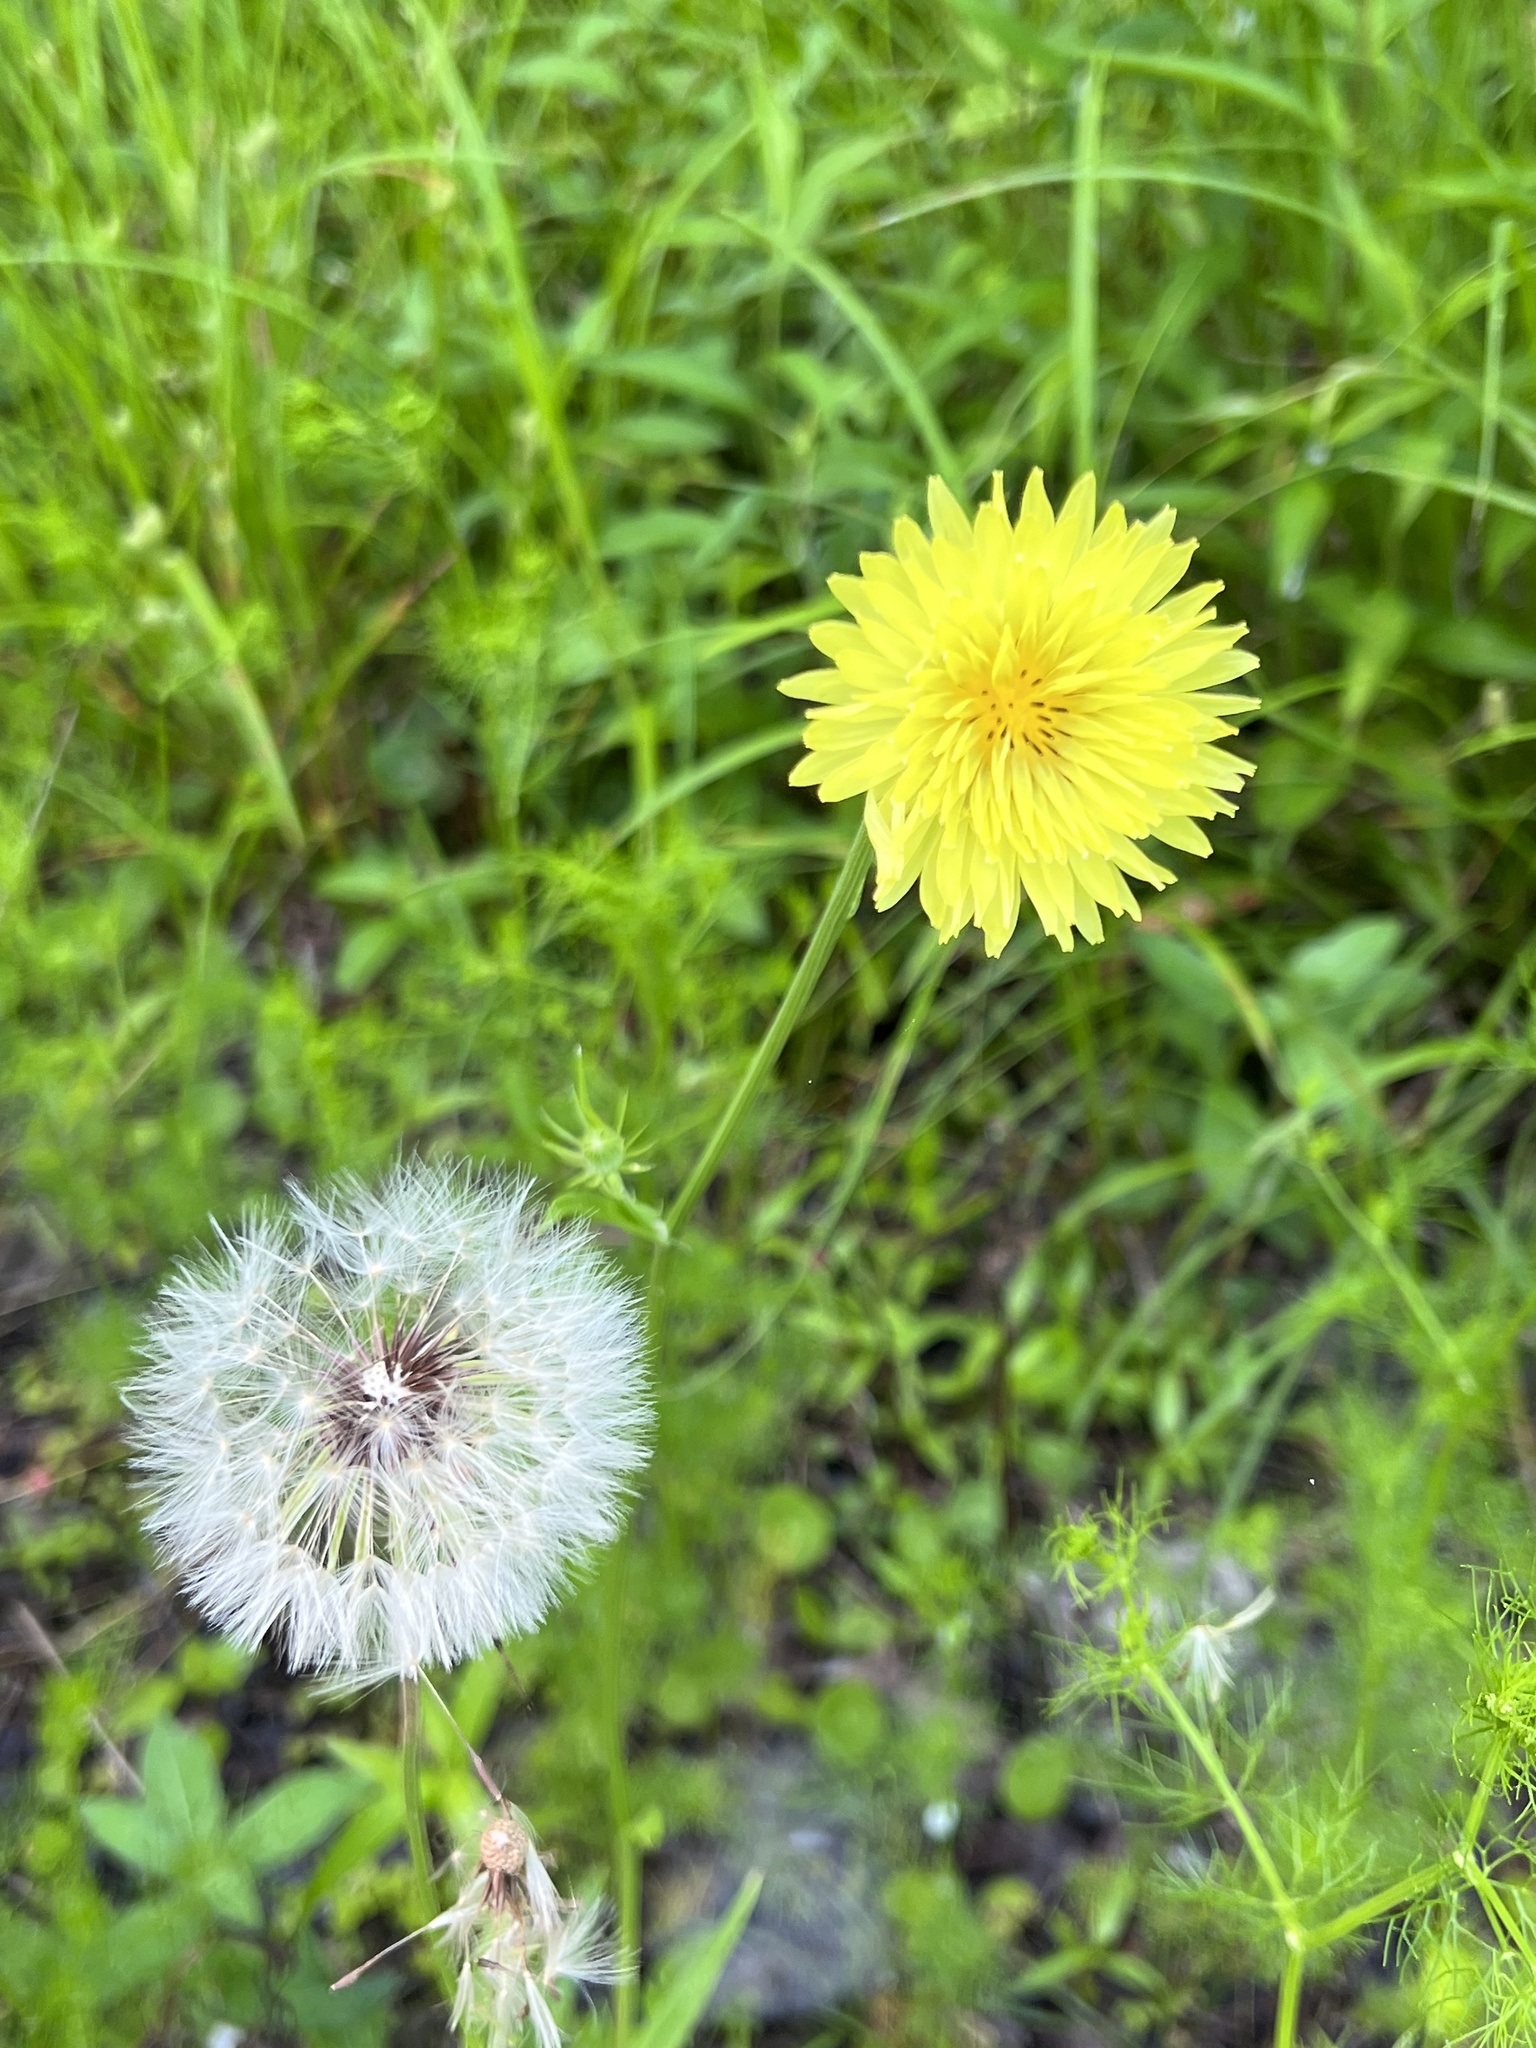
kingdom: Plantae
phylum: Tracheophyta
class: Magnoliopsida
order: Asterales
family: Asteraceae
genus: Pyrrhopappus
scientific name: Pyrrhopappus carolinianus
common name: Carolina desert-chicory
